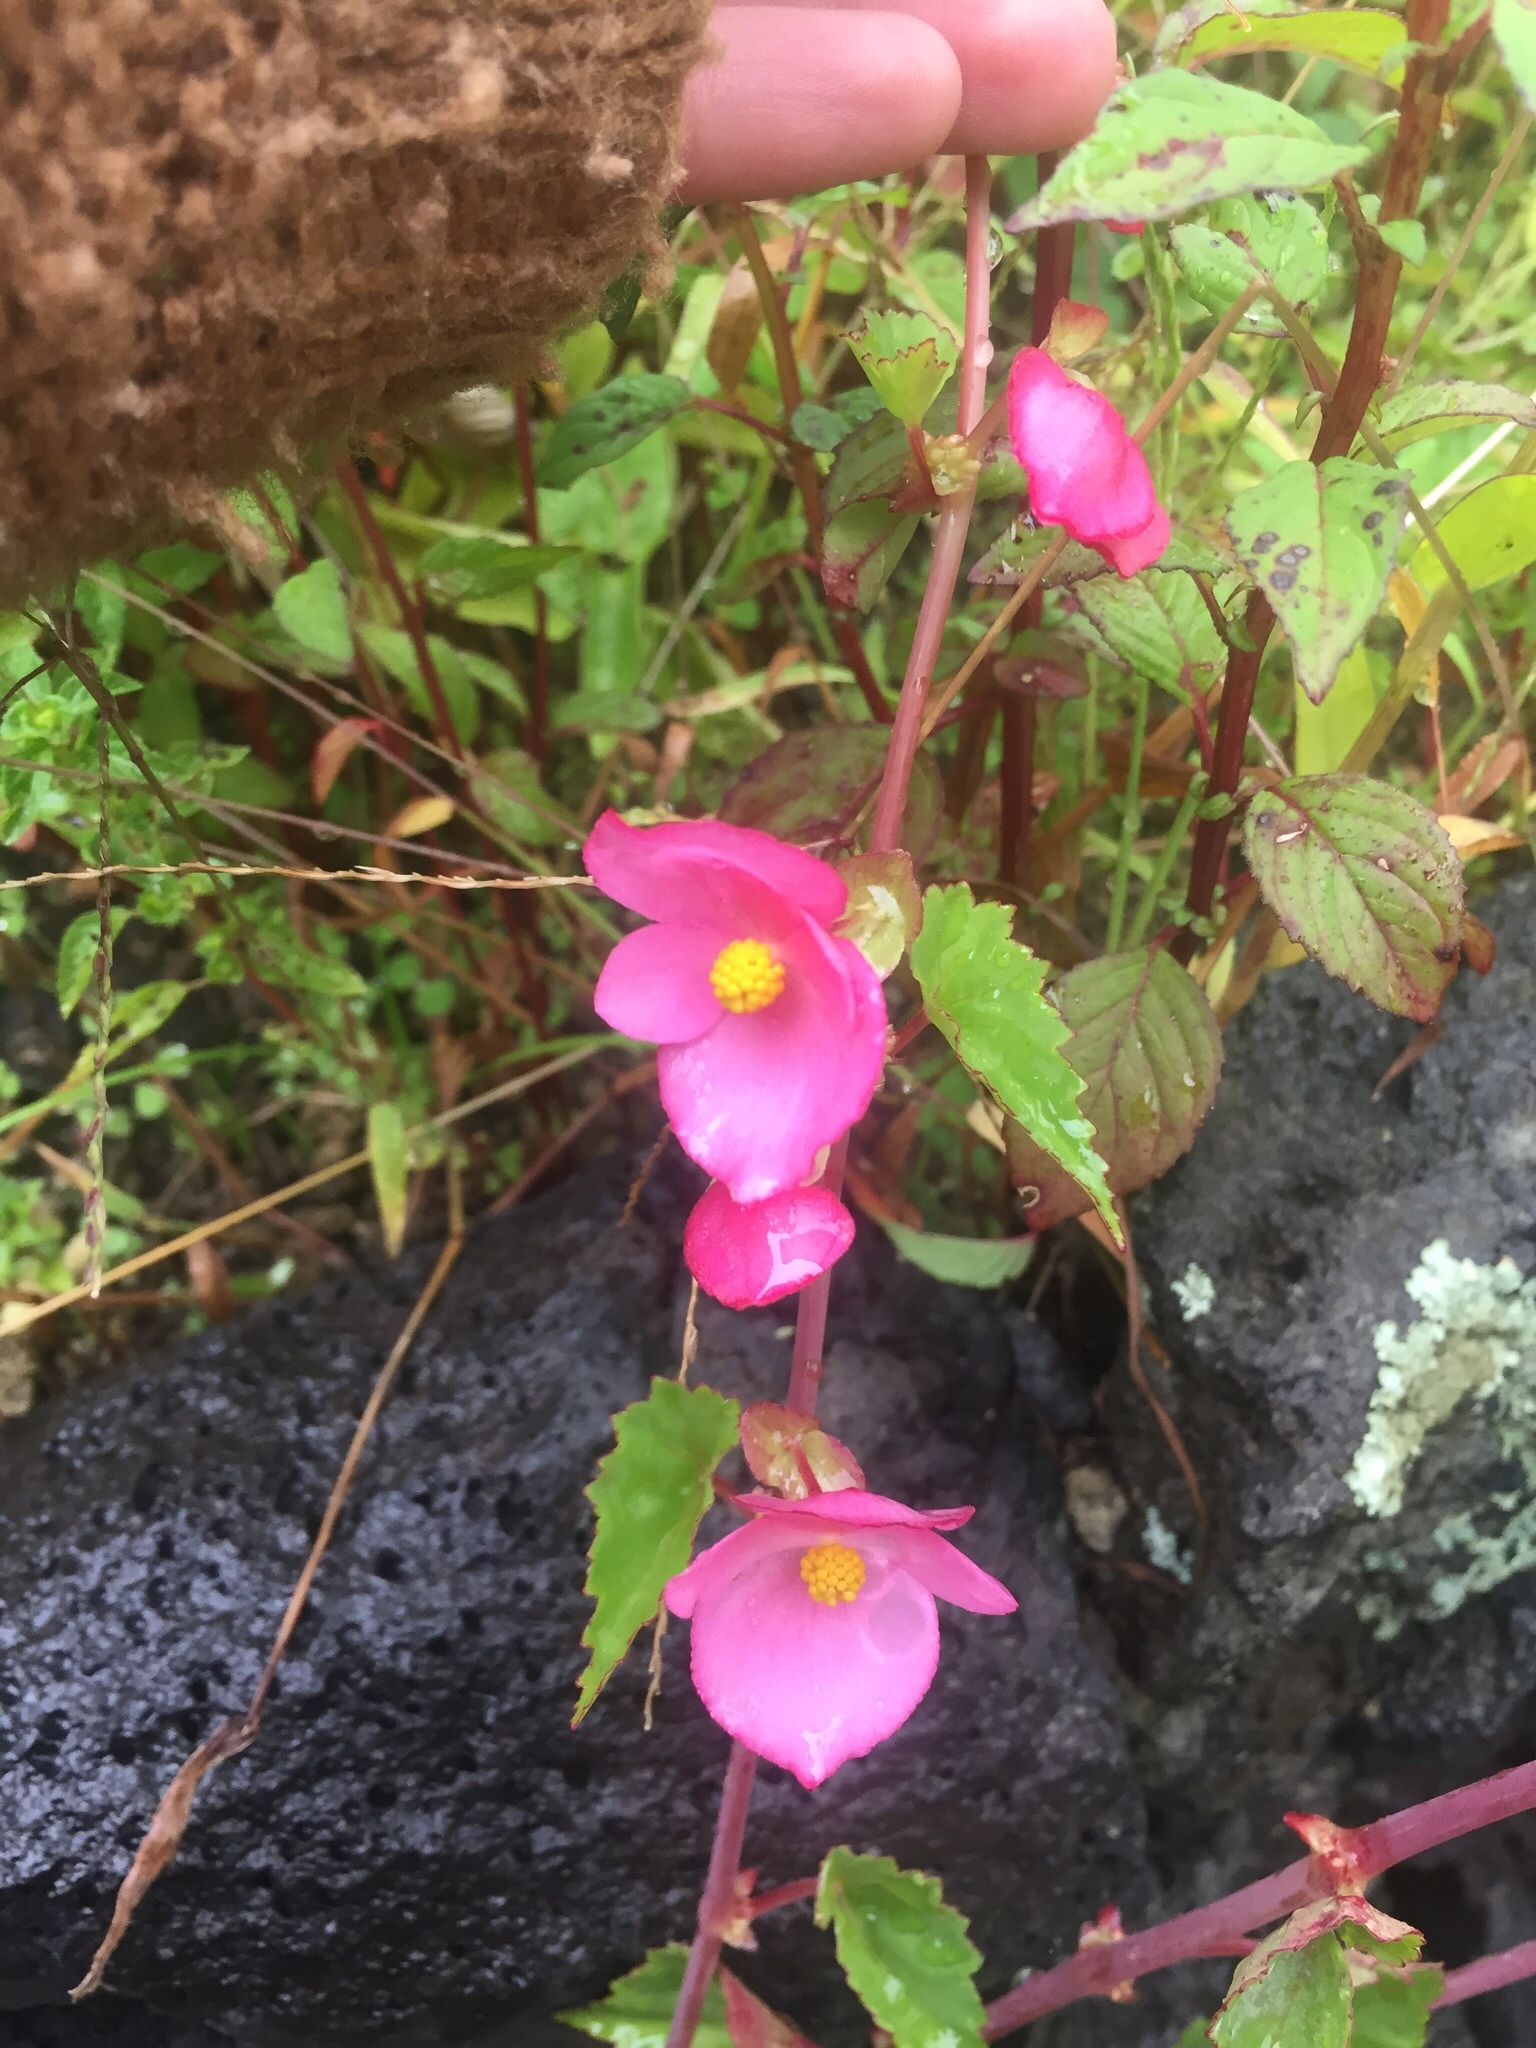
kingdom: Plantae
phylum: Tracheophyta
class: Magnoliopsida
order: Cucurbitales
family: Begoniaceae
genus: Begonia
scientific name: Begonia gracilis
